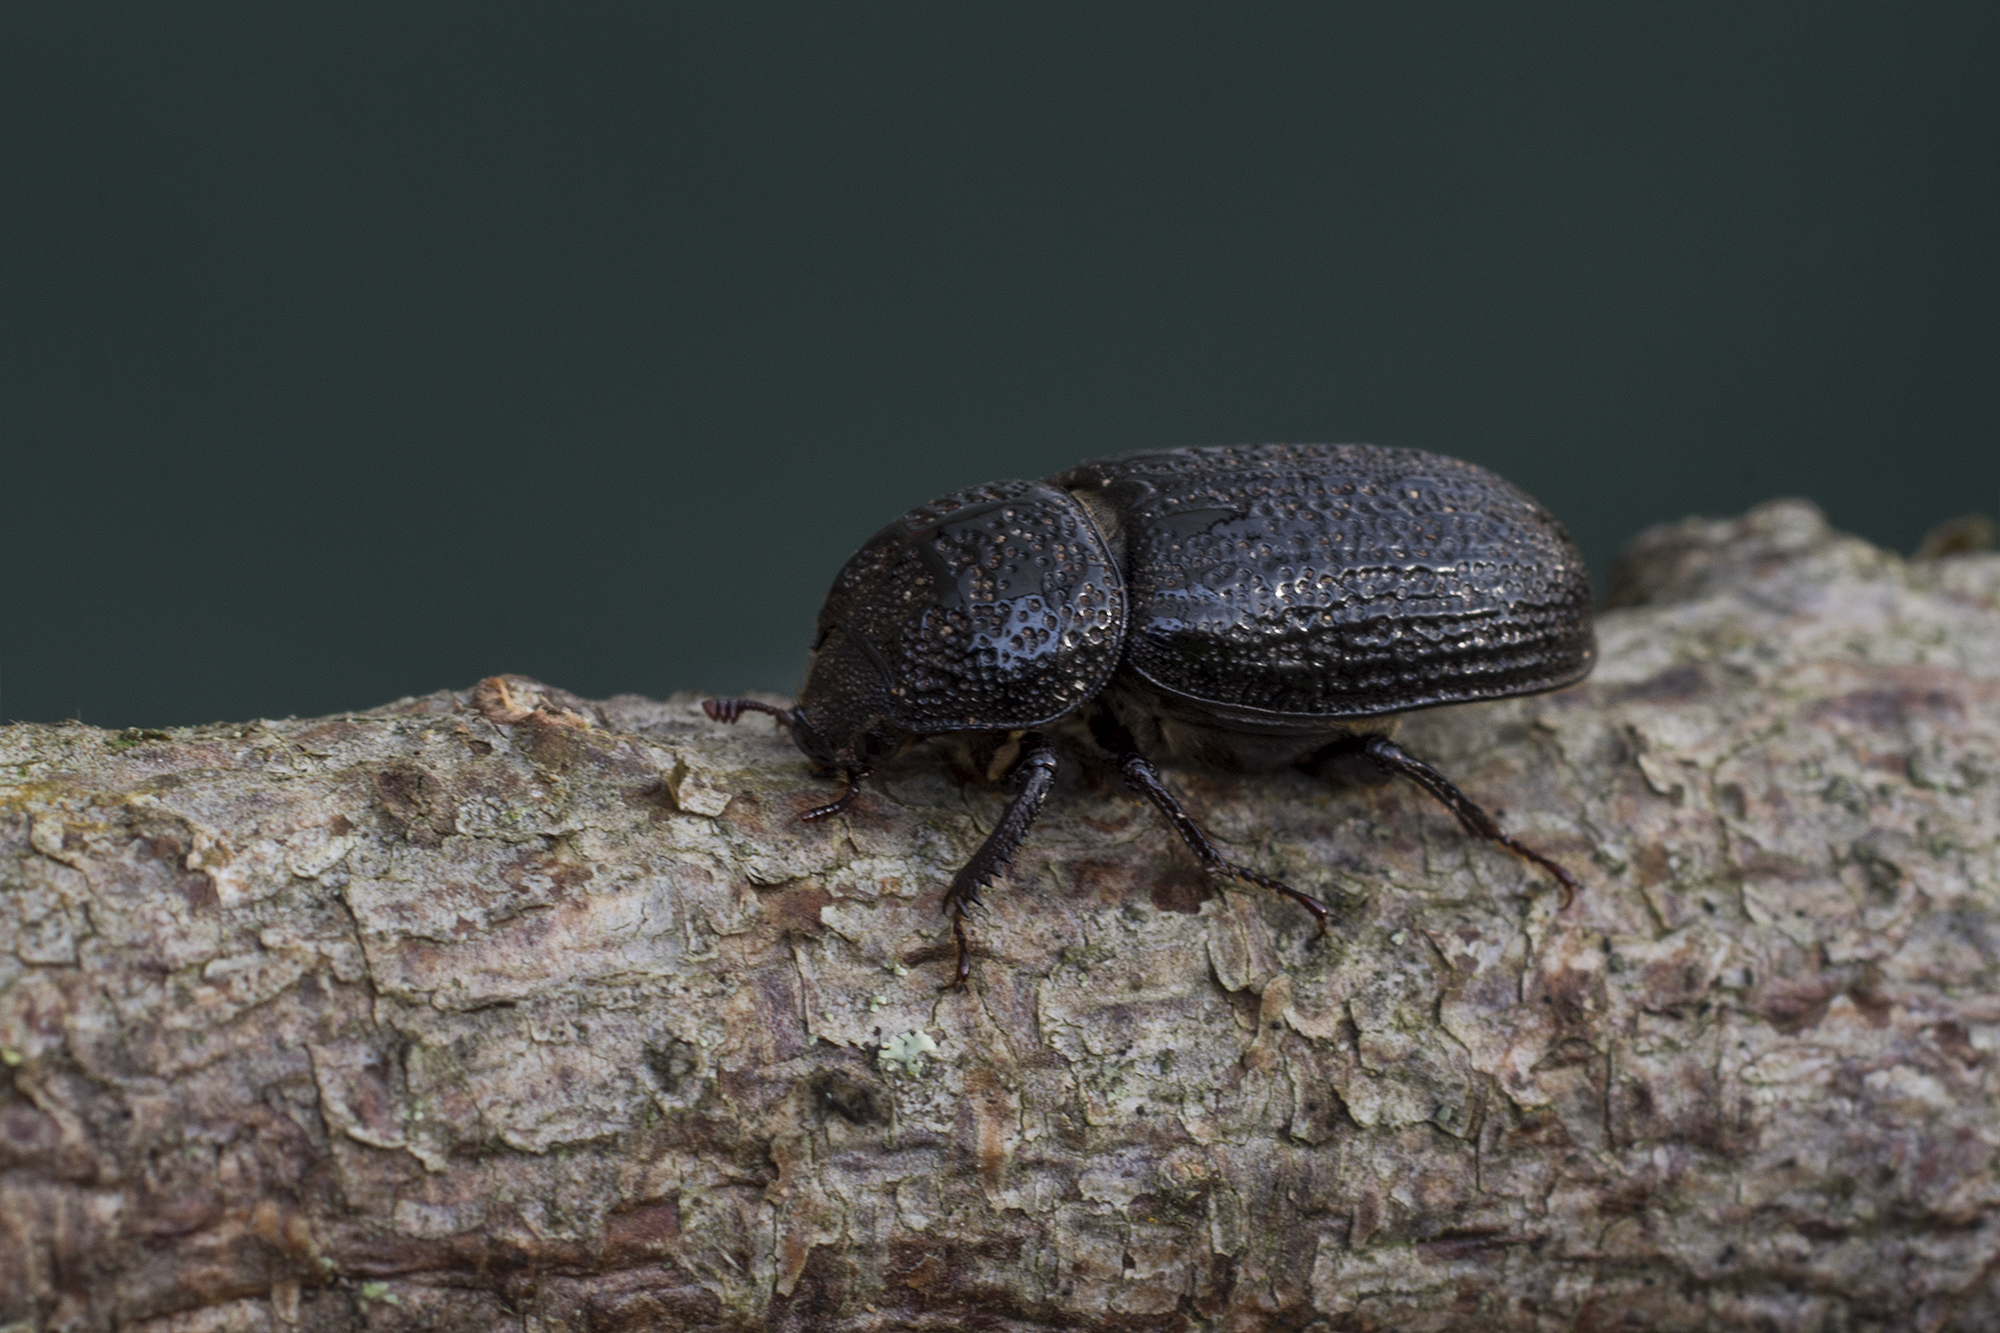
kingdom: Animalia
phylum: Arthropoda
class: Insecta
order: Coleoptera
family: Lucanidae
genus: Sinodendron
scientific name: Sinodendron cylindricum
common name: Rhinoceros beetle
